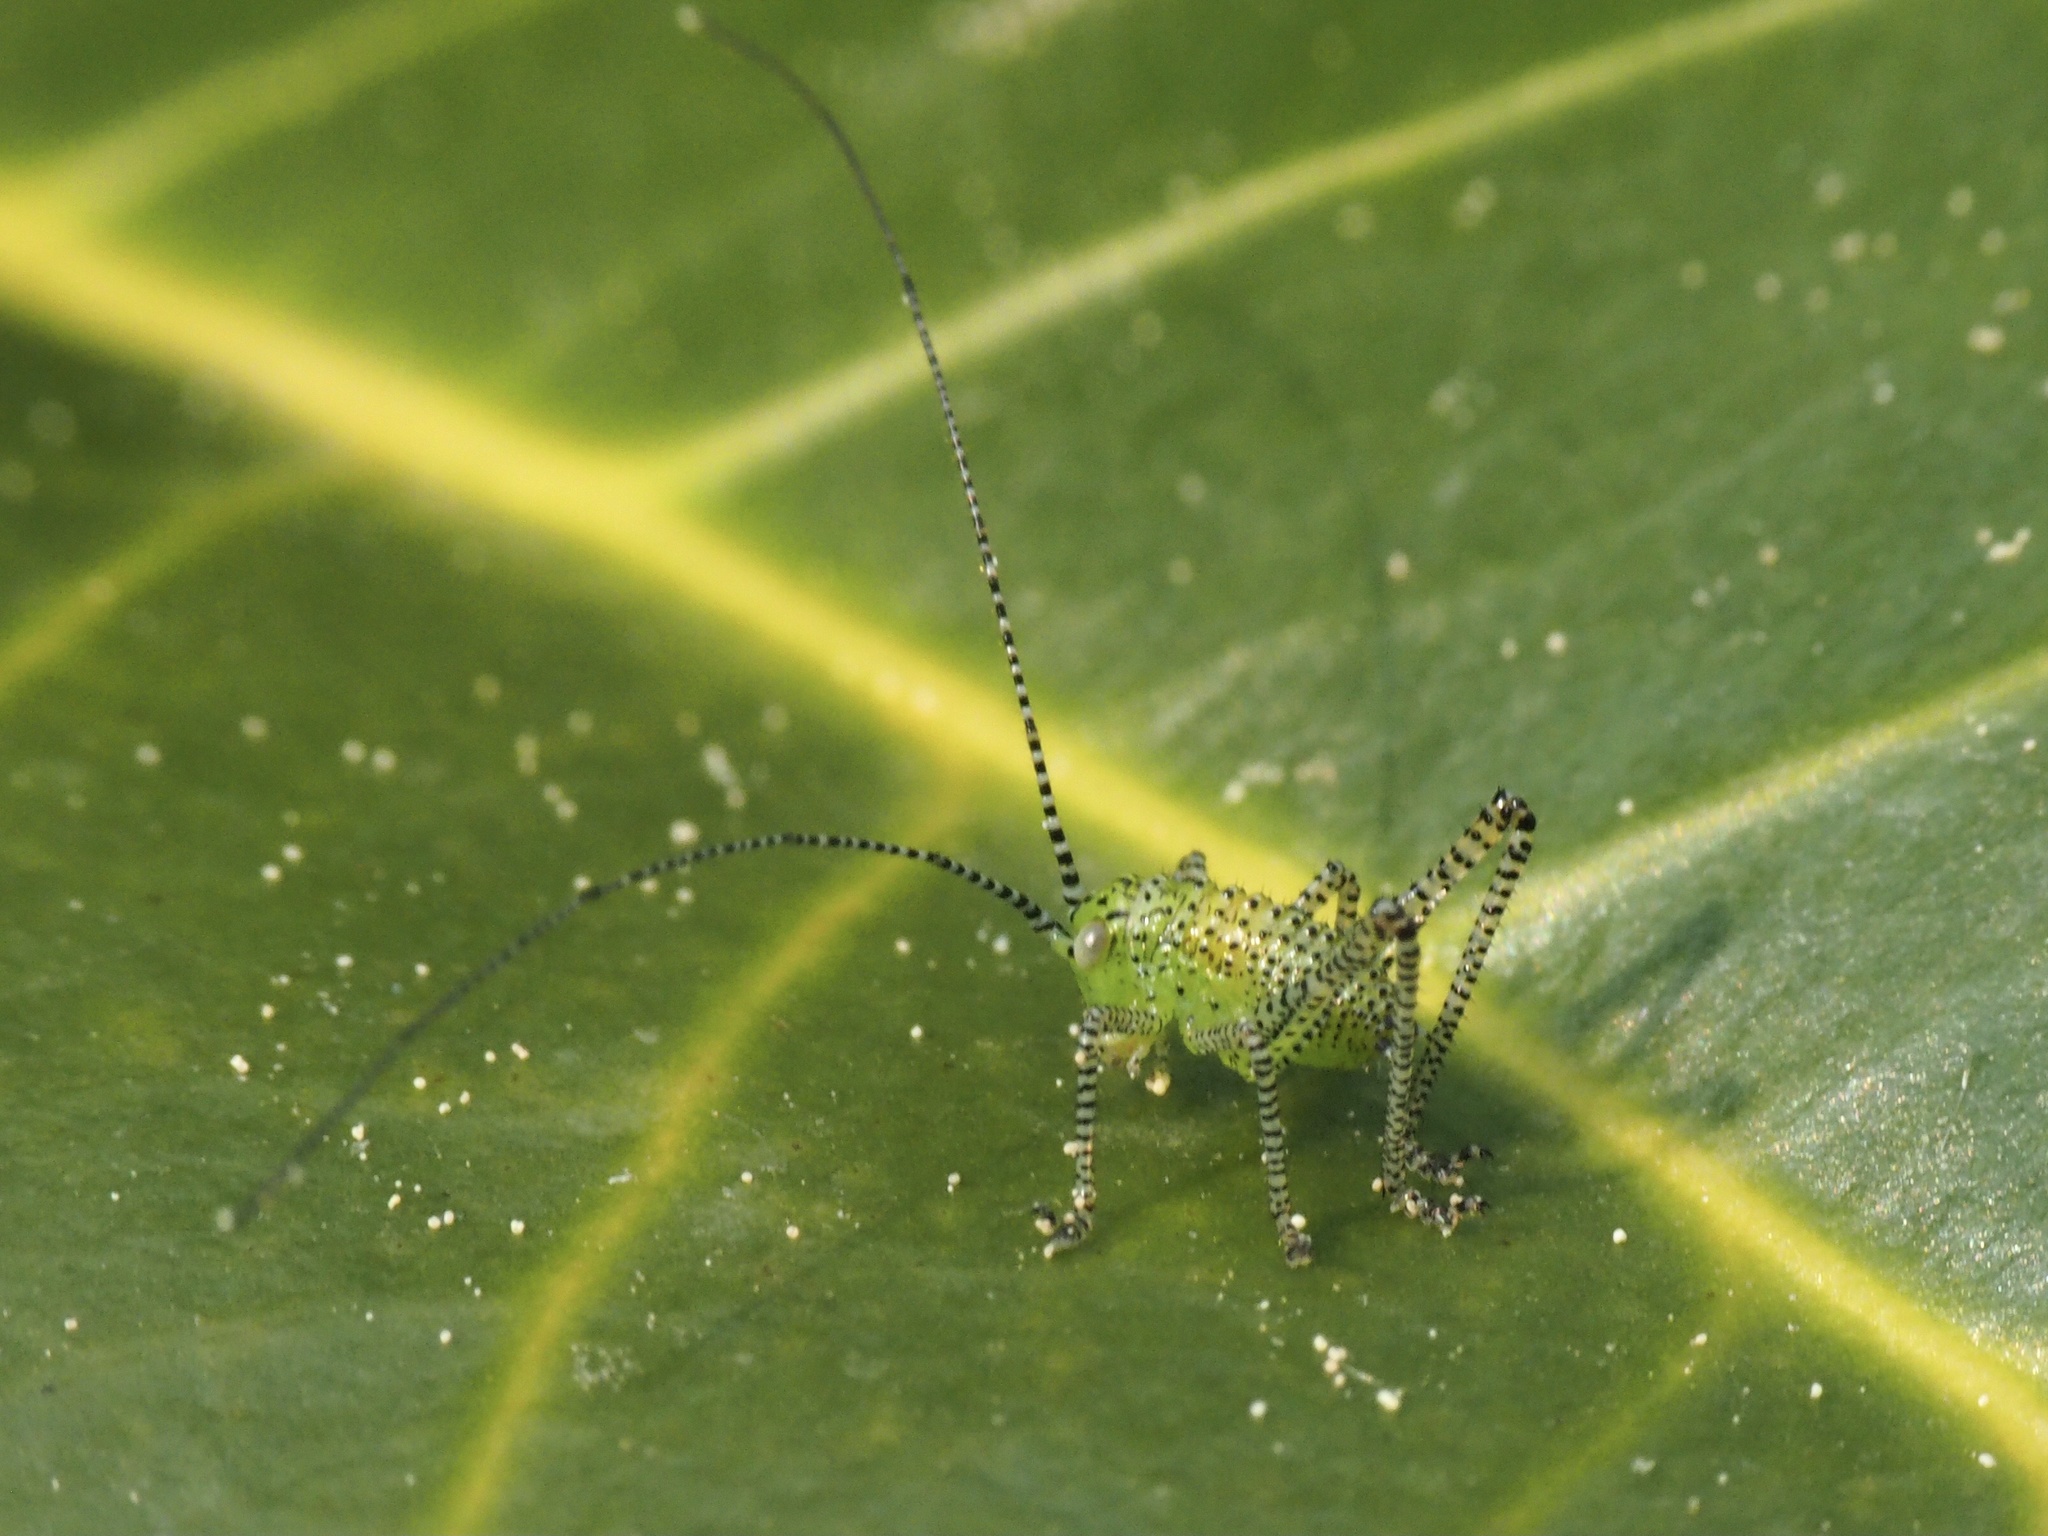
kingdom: Animalia
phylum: Arthropoda
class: Insecta
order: Orthoptera
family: Tettigoniidae
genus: Leptophyes
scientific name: Leptophyes punctatissima
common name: Speckled bush-cricket
